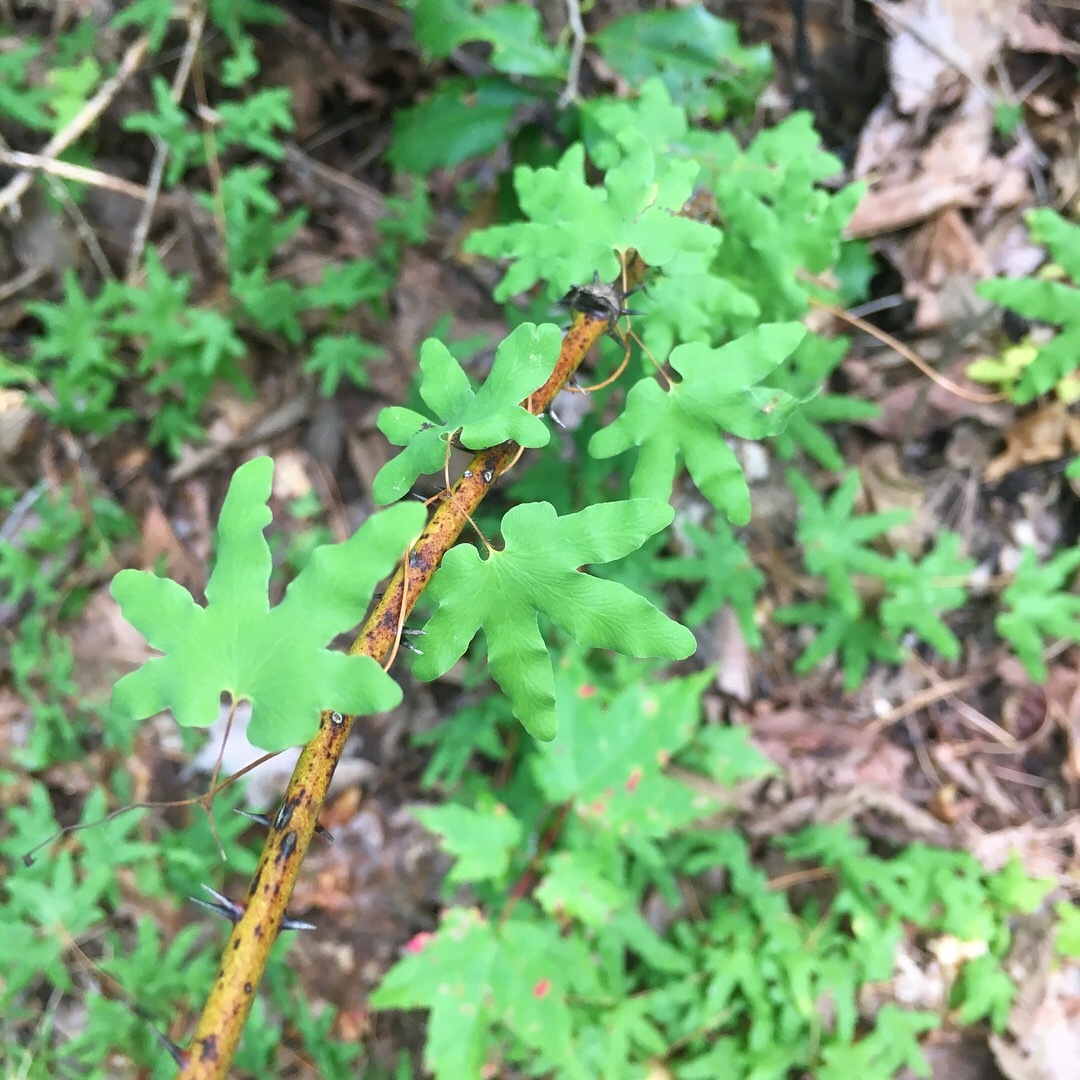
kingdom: Plantae
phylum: Tracheophyta
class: Polypodiopsida
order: Schizaeales
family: Lygodiaceae
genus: Lygodium
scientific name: Lygodium palmatum
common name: American climbing fern
